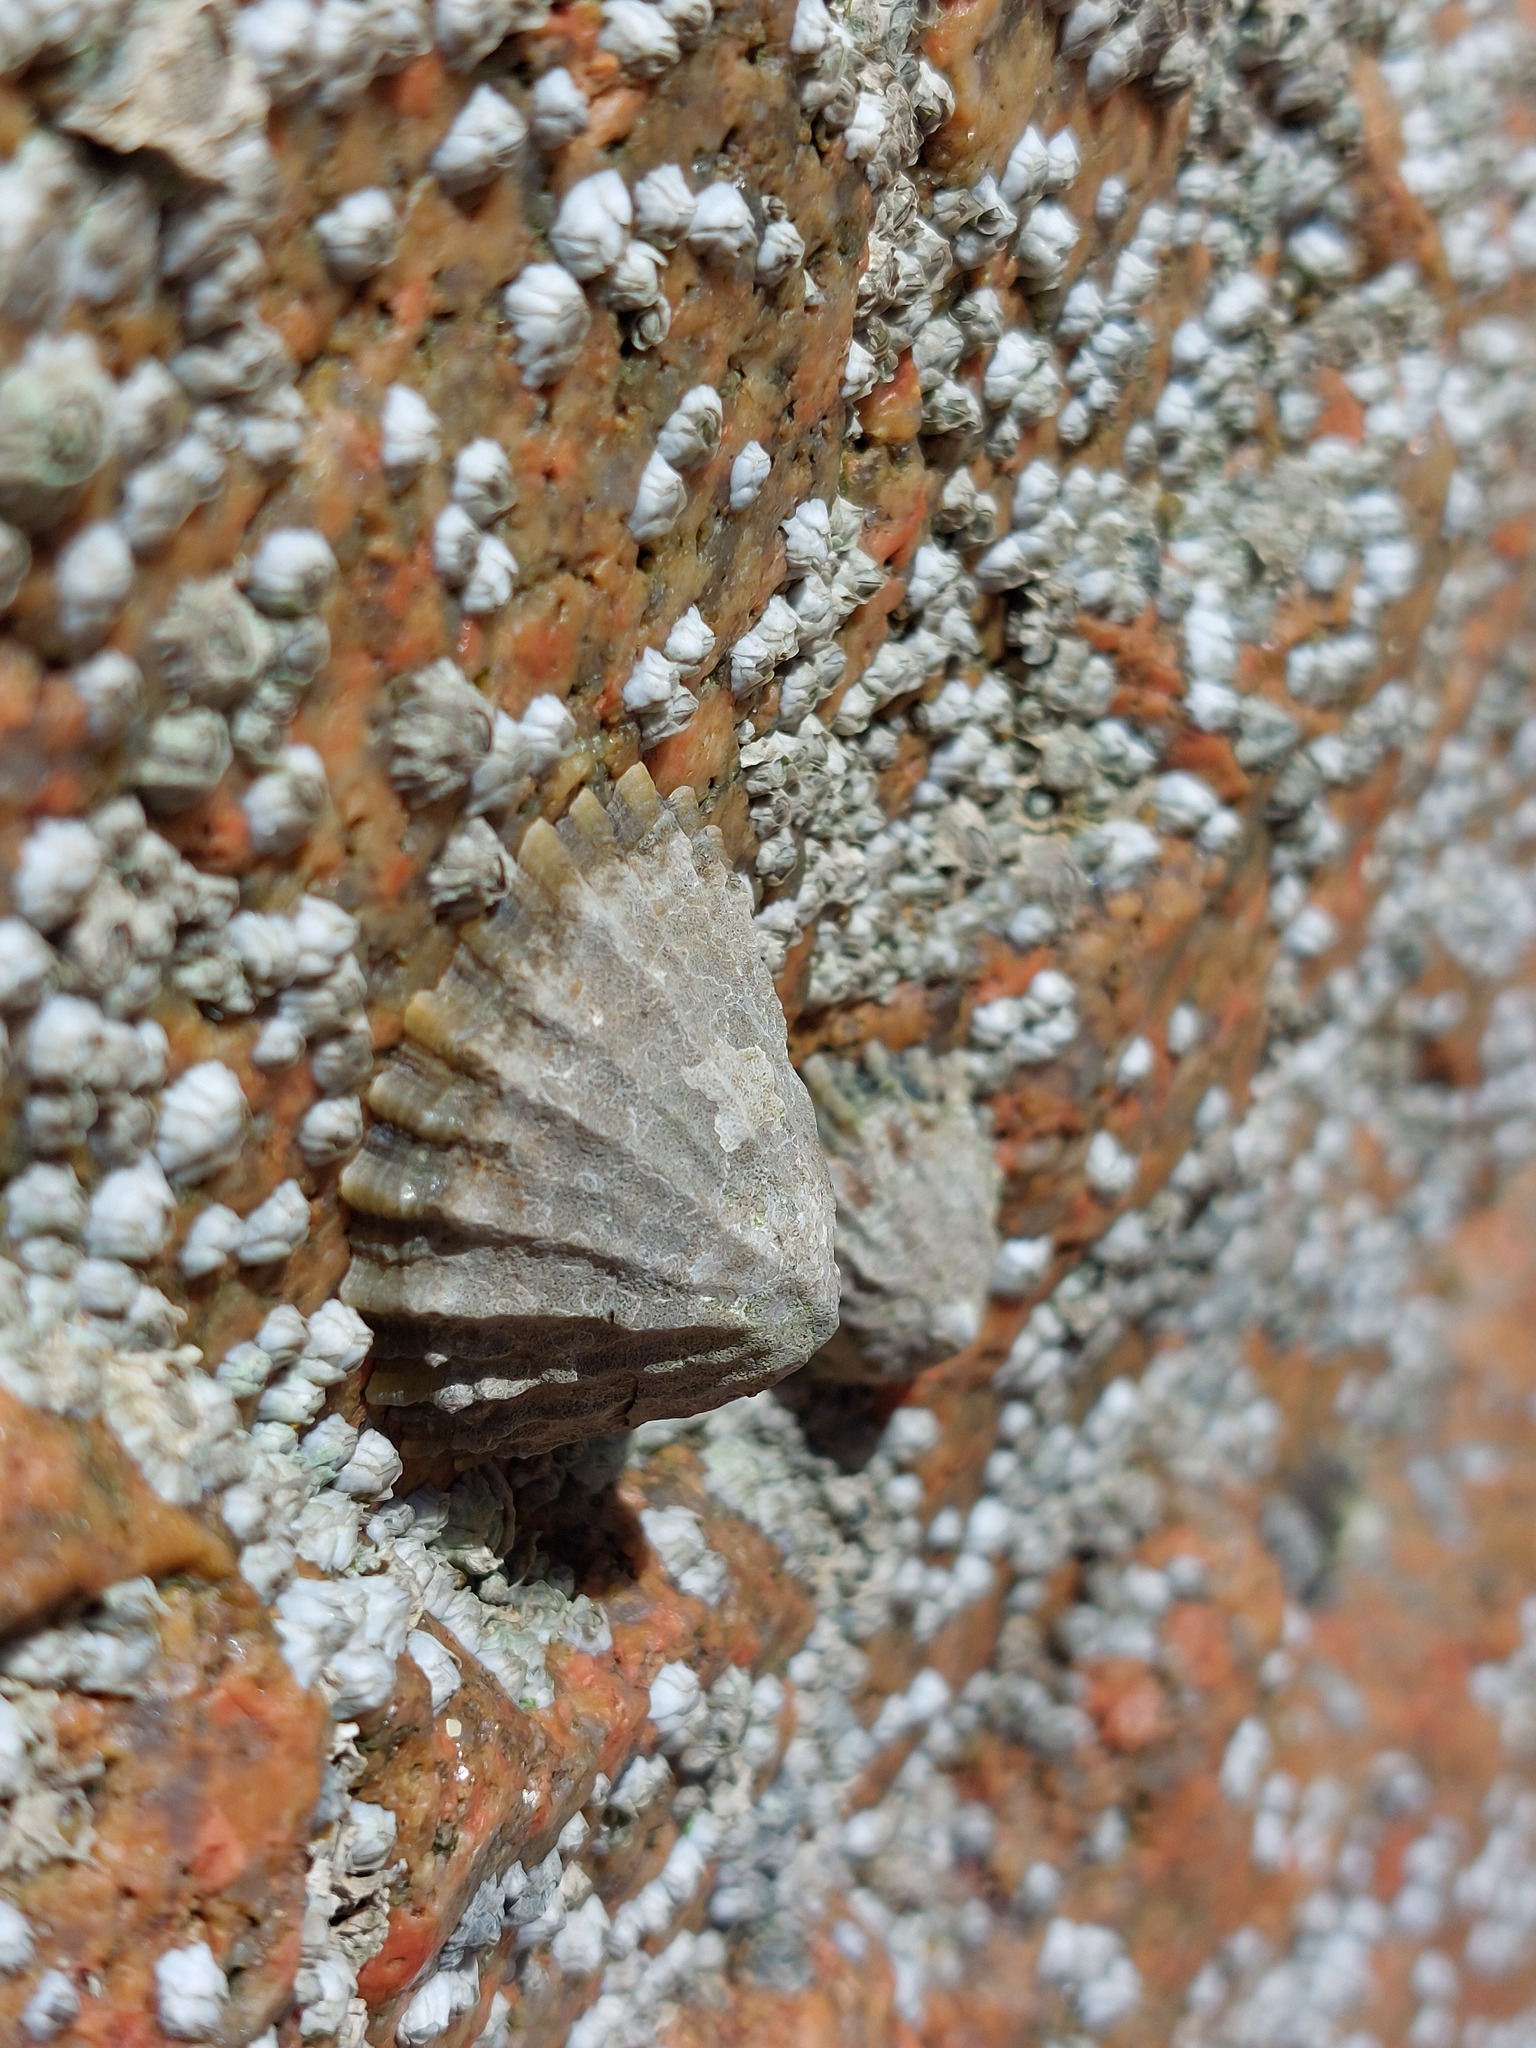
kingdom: Animalia
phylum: Mollusca
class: Gastropoda
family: Patellidae
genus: Patella
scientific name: Patella vulgata
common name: Common limpet
